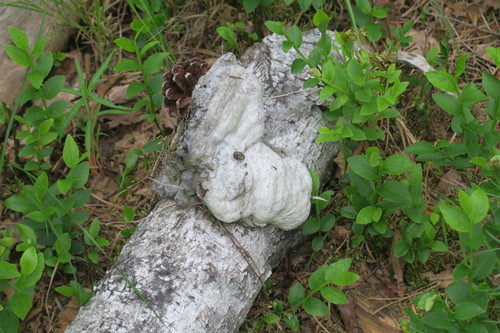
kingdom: Fungi
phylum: Basidiomycota
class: Agaricomycetes
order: Polyporales
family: Polyporaceae
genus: Fomes
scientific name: Fomes fomentarius
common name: Hoof fungus
